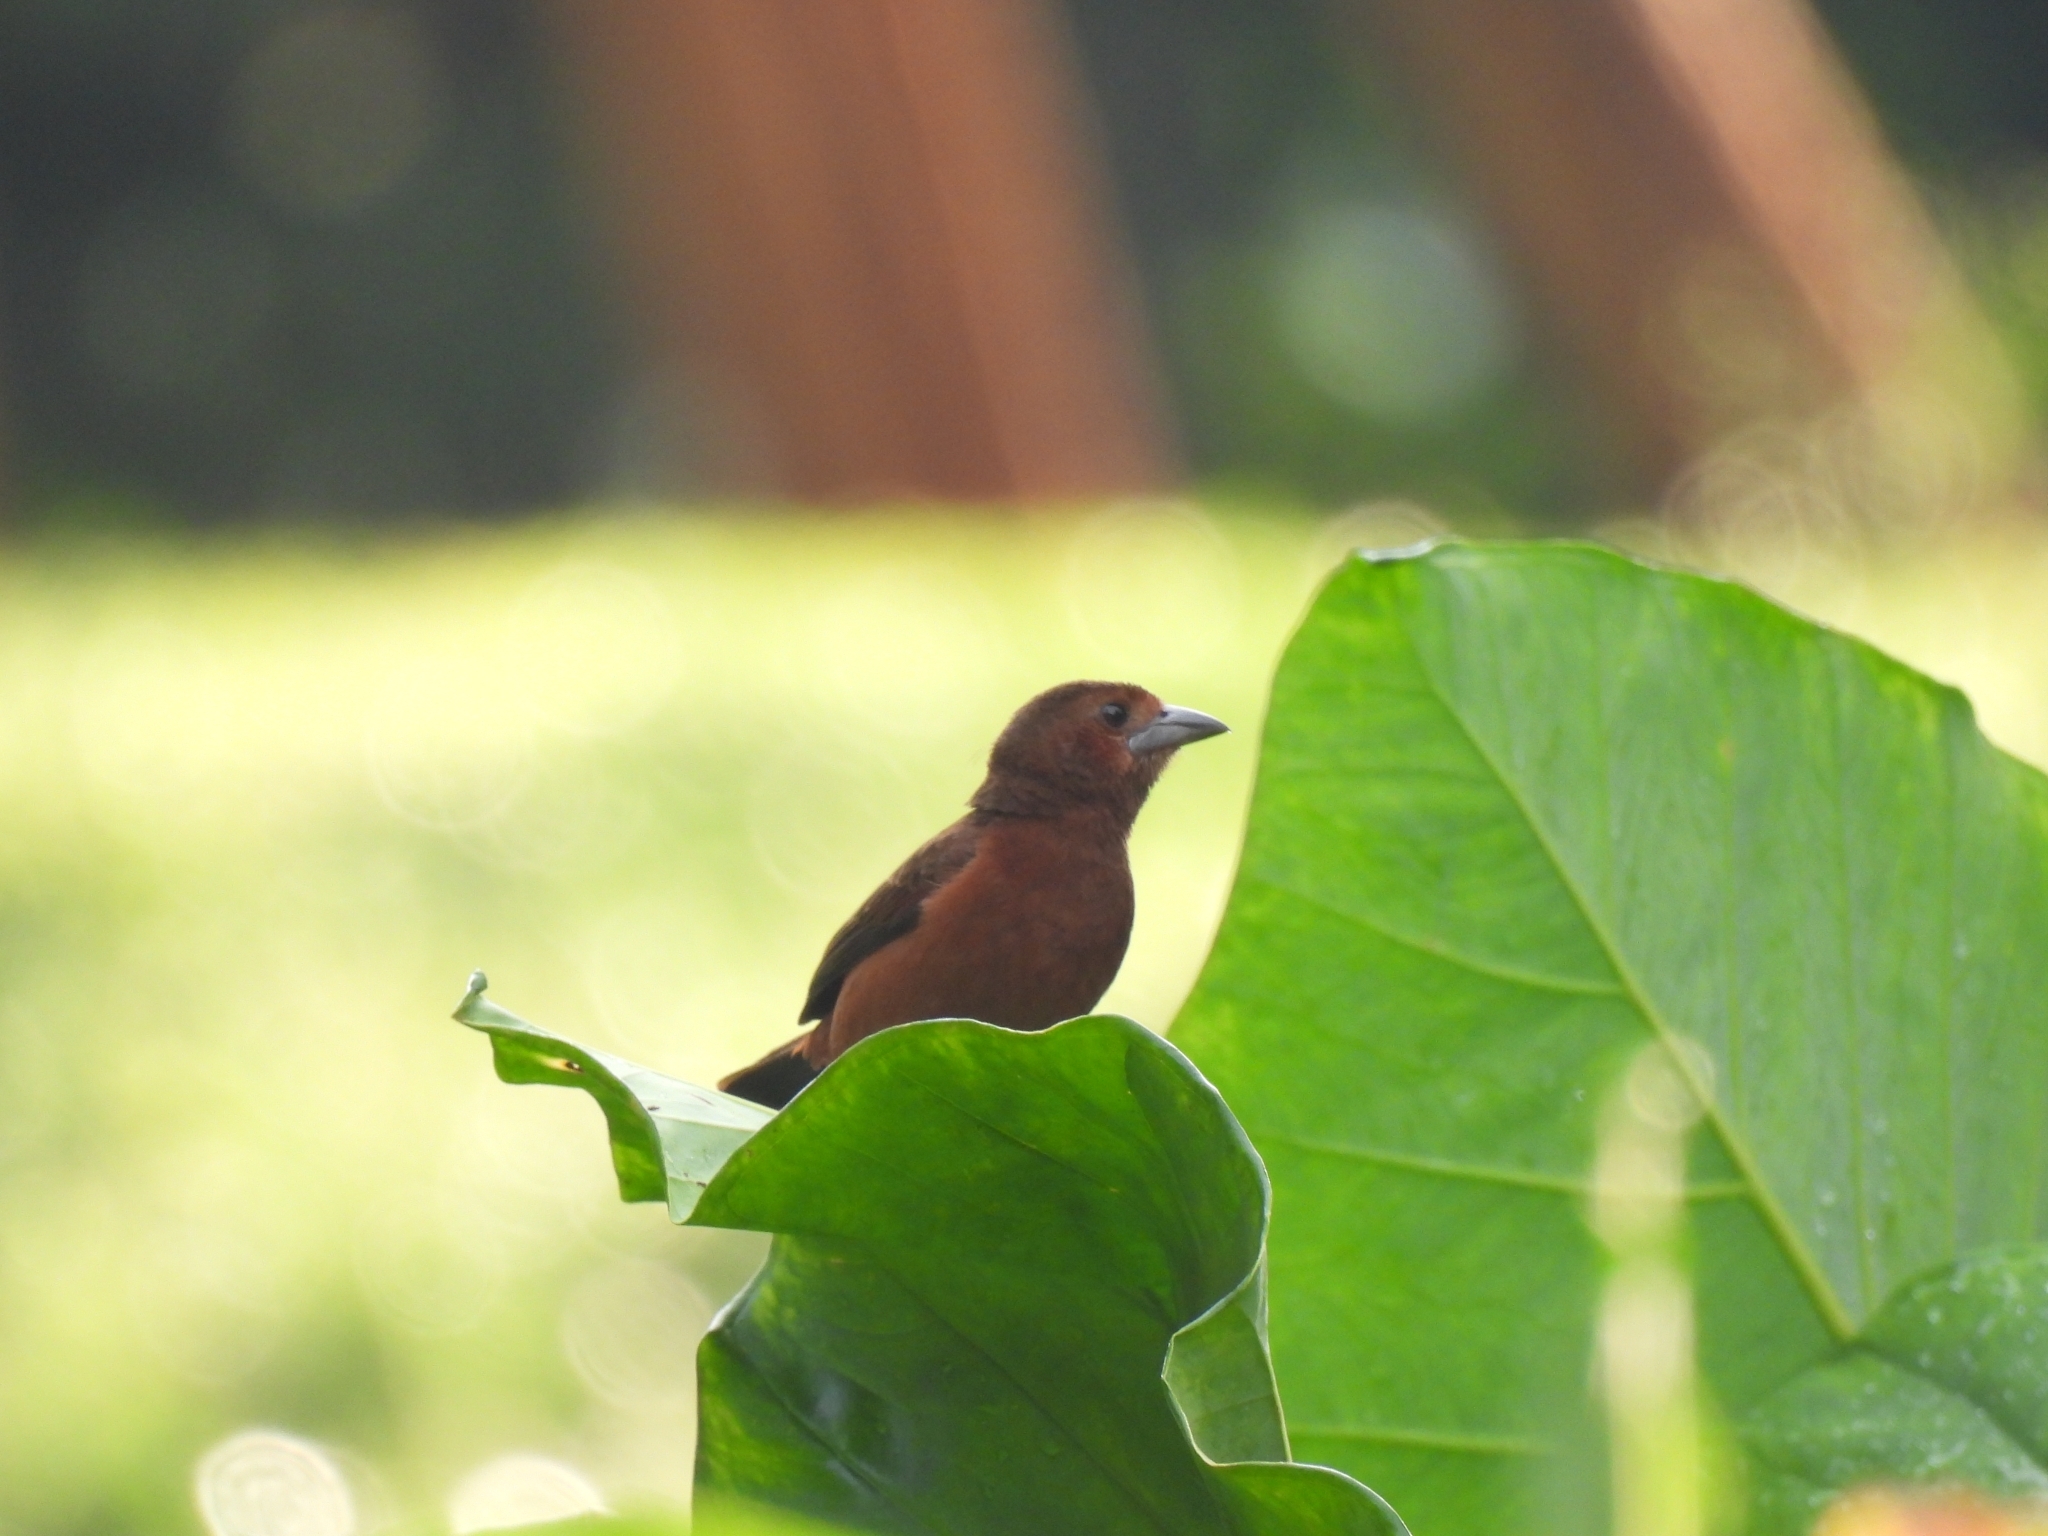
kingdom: Animalia
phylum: Chordata
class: Aves
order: Passeriformes
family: Thraupidae
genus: Ramphocelus
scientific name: Ramphocelus carbo
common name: Silver-beaked tanager
